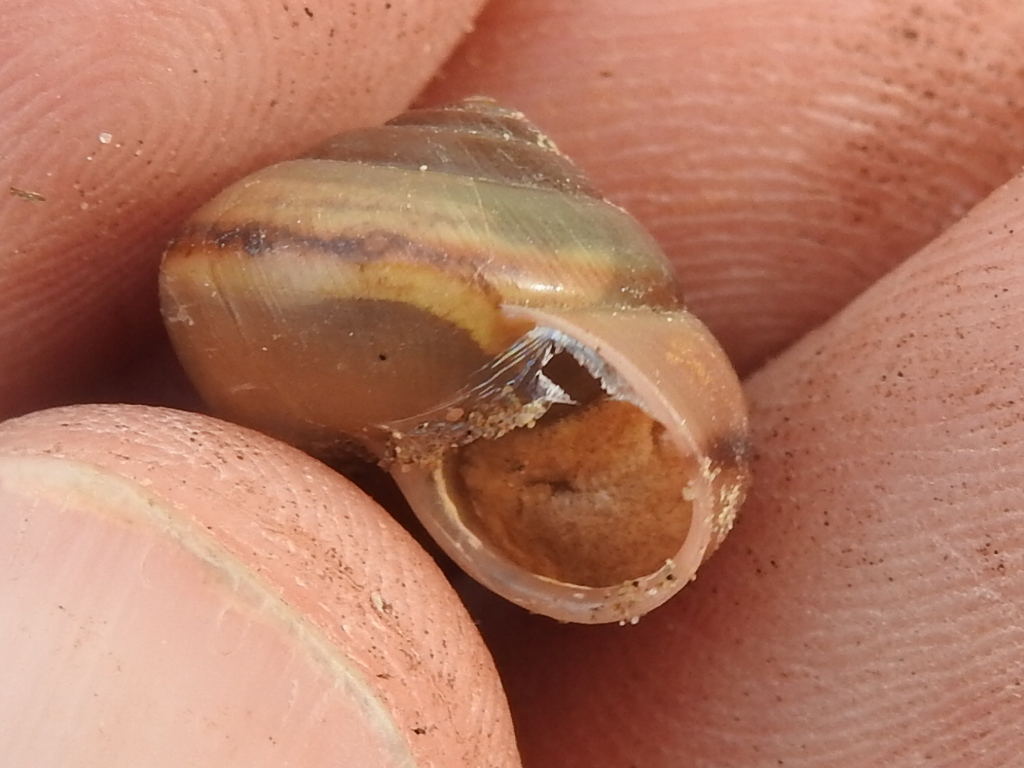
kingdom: Animalia
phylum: Mollusca
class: Gastropoda
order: Stylommatophora
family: Camaenidae
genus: Bradybaena
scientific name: Bradybaena similaris
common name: Asian trampsnail
